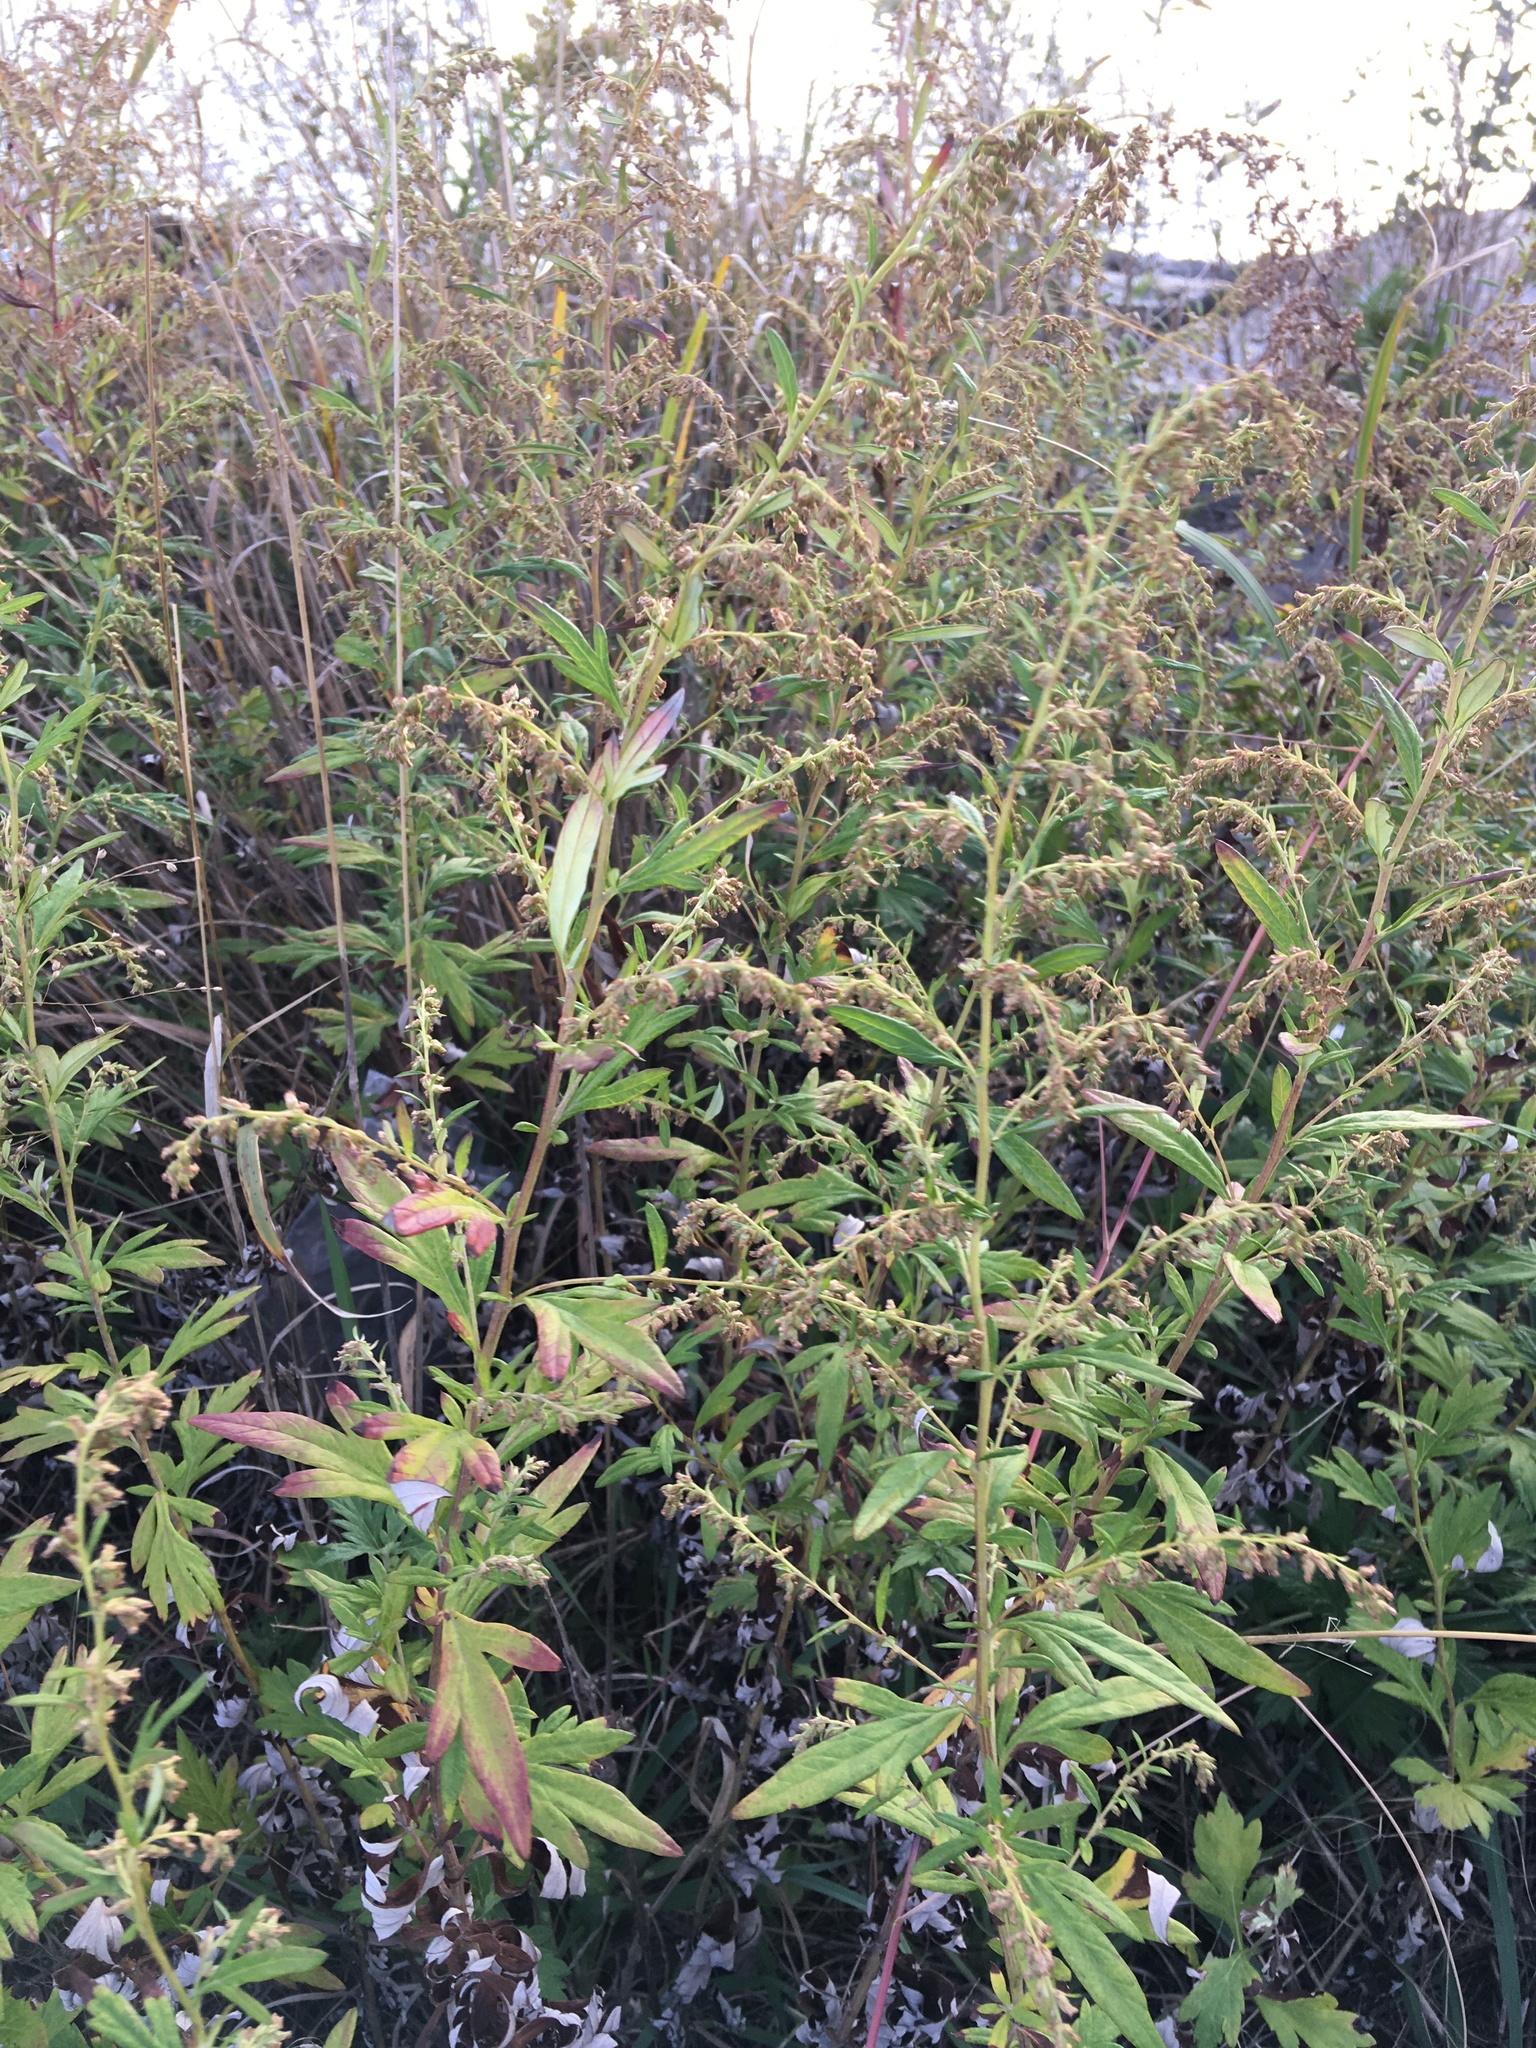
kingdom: Plantae
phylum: Tracheophyta
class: Magnoliopsida
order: Asterales
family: Asteraceae
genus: Artemisia
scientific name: Artemisia vulgaris
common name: Mugwort
